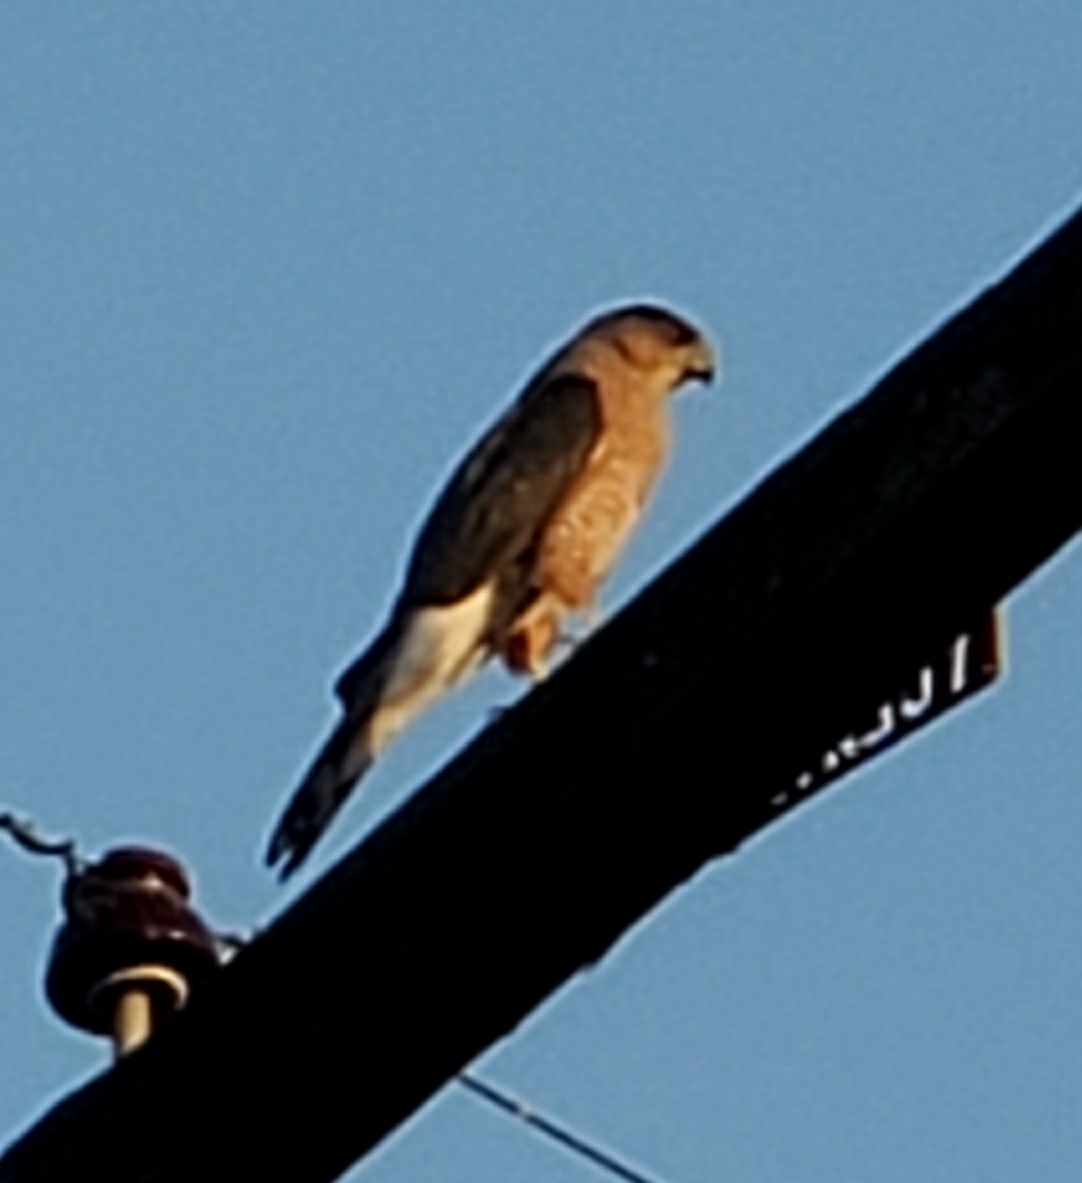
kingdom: Animalia
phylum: Chordata
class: Aves
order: Accipitriformes
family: Accipitridae
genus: Accipiter
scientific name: Accipiter cooperii
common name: Cooper's hawk
